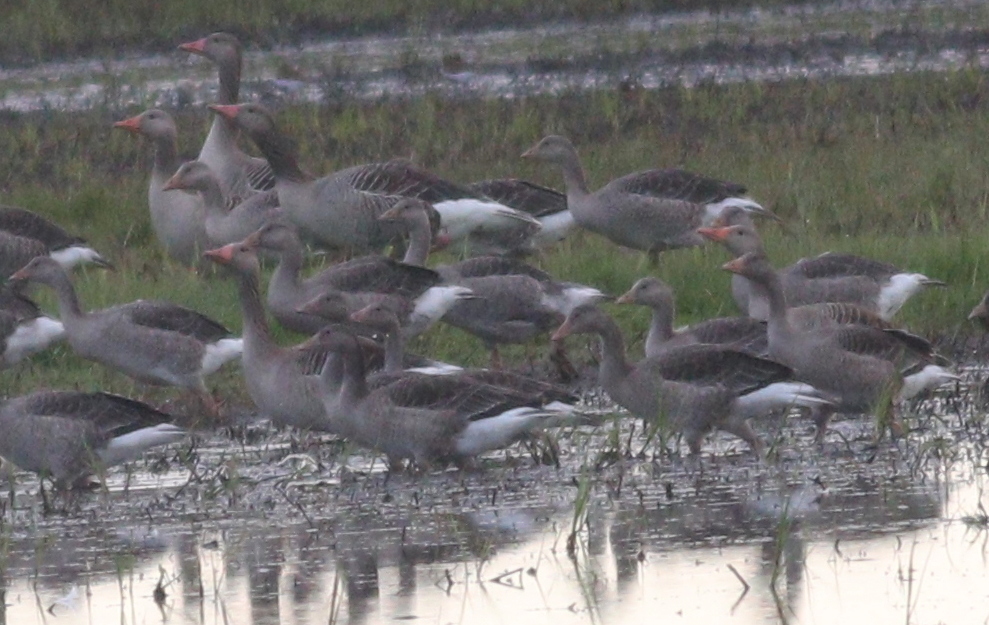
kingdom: Animalia
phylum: Chordata
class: Aves
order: Anseriformes
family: Anatidae
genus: Anser
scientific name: Anser anser
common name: Greylag goose
